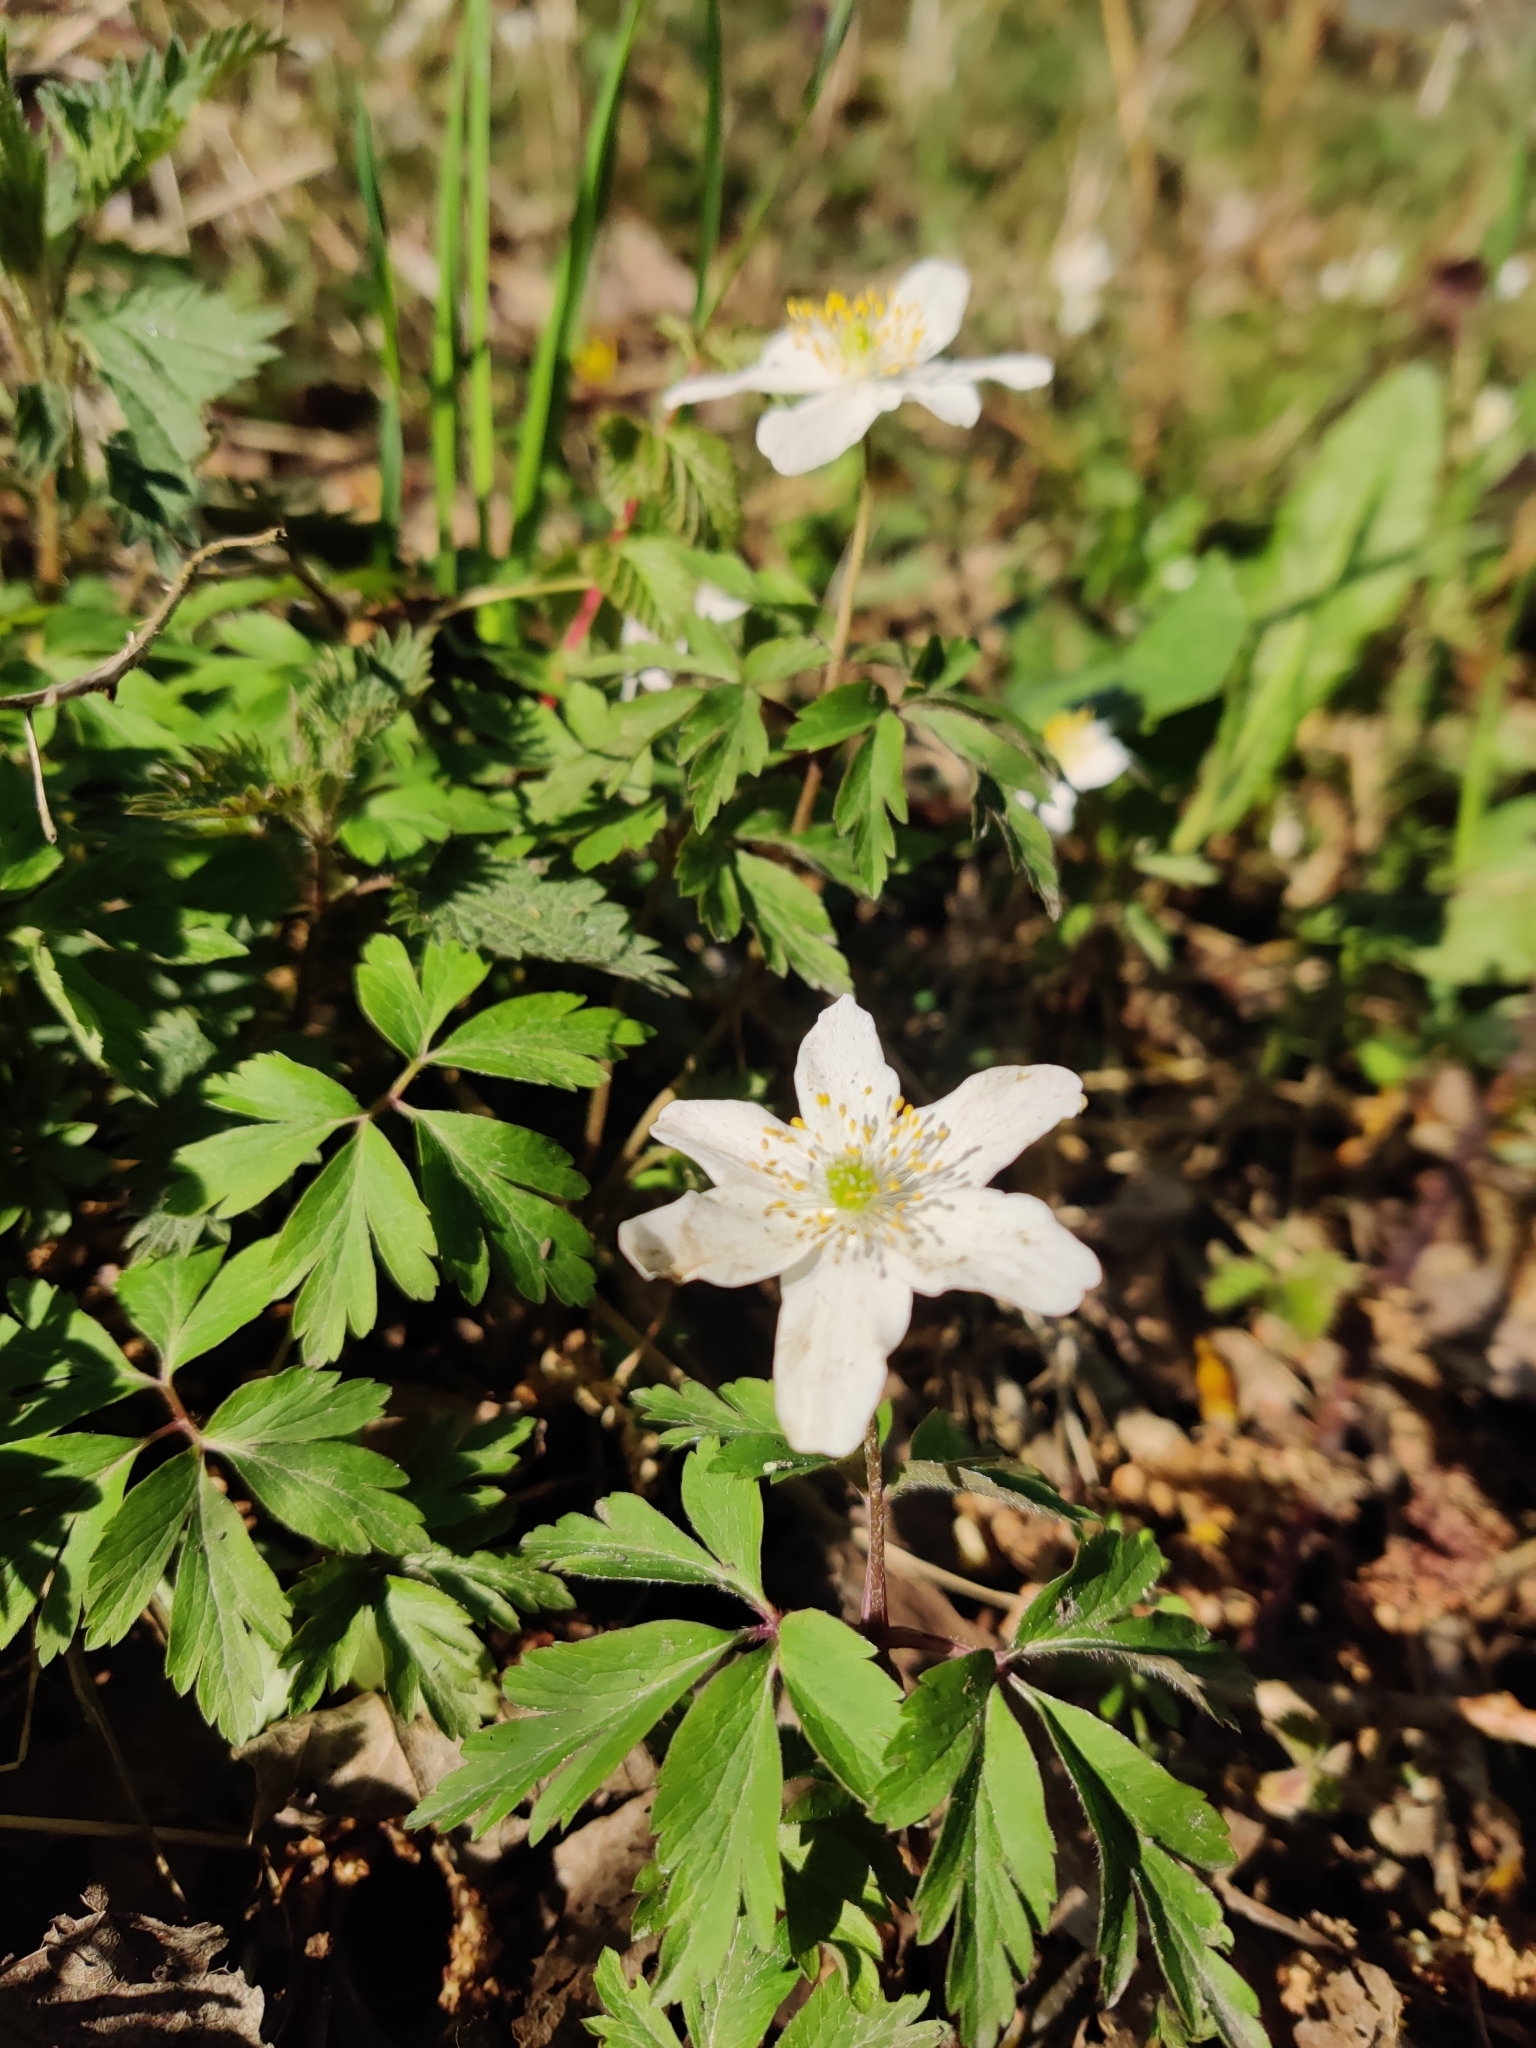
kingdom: Plantae
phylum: Tracheophyta
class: Magnoliopsida
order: Ranunculales
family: Ranunculaceae
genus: Anemone
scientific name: Anemone nemorosa
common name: Wood anemone
